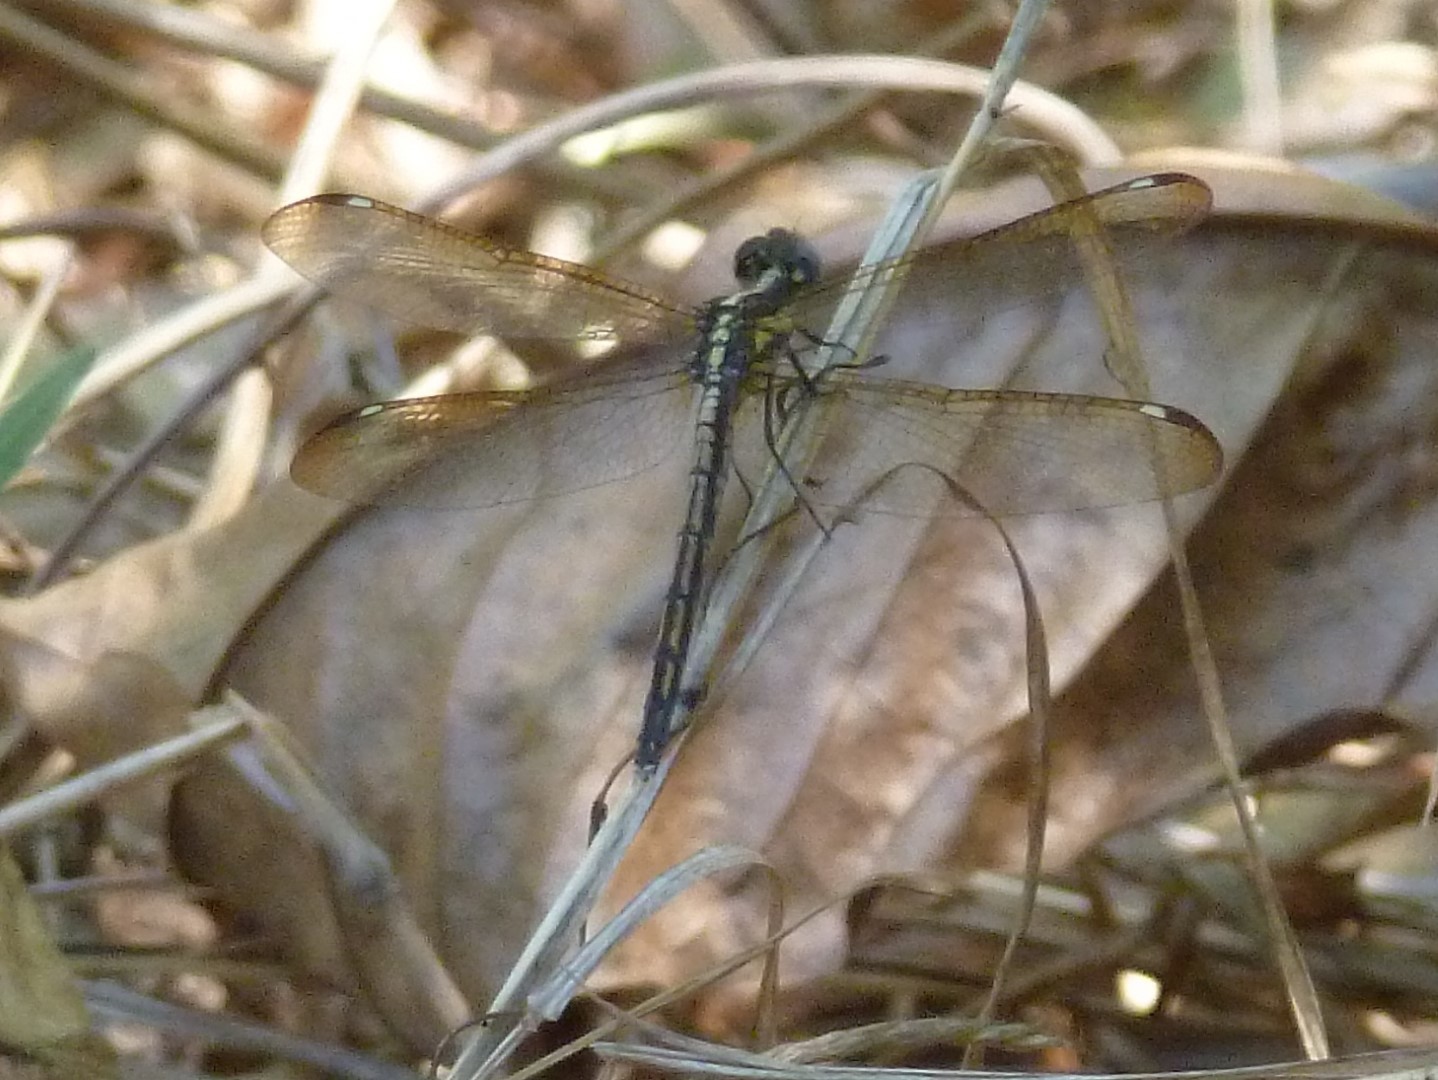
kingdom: Animalia
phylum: Arthropoda
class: Insecta
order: Odonata
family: Libellulidae
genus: Hemistigma
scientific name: Hemistigma affine
